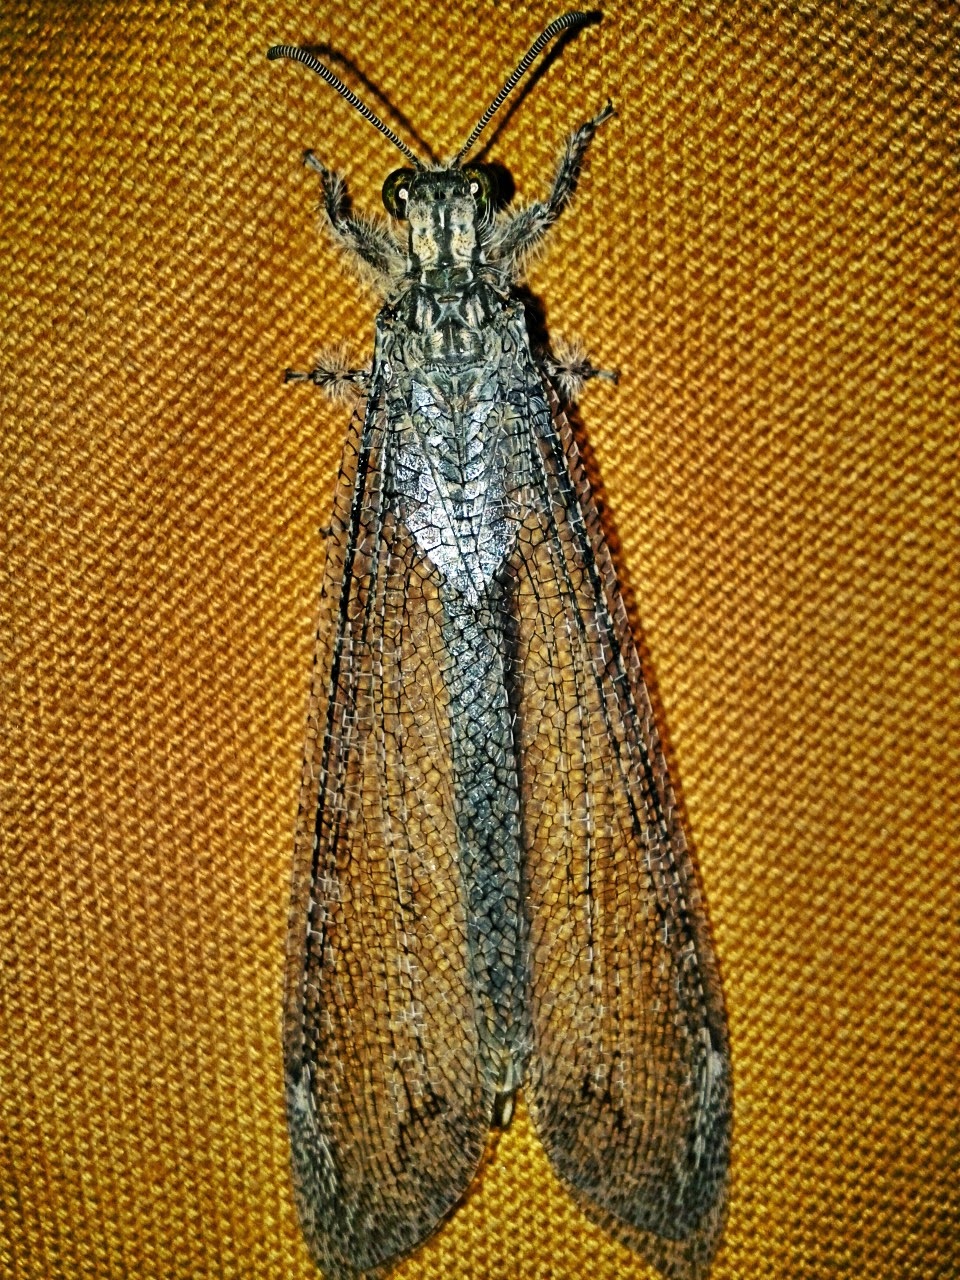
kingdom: Animalia
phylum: Arthropoda
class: Insecta
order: Neuroptera
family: Myrmeleontidae
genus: Vella
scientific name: Vella fallax
